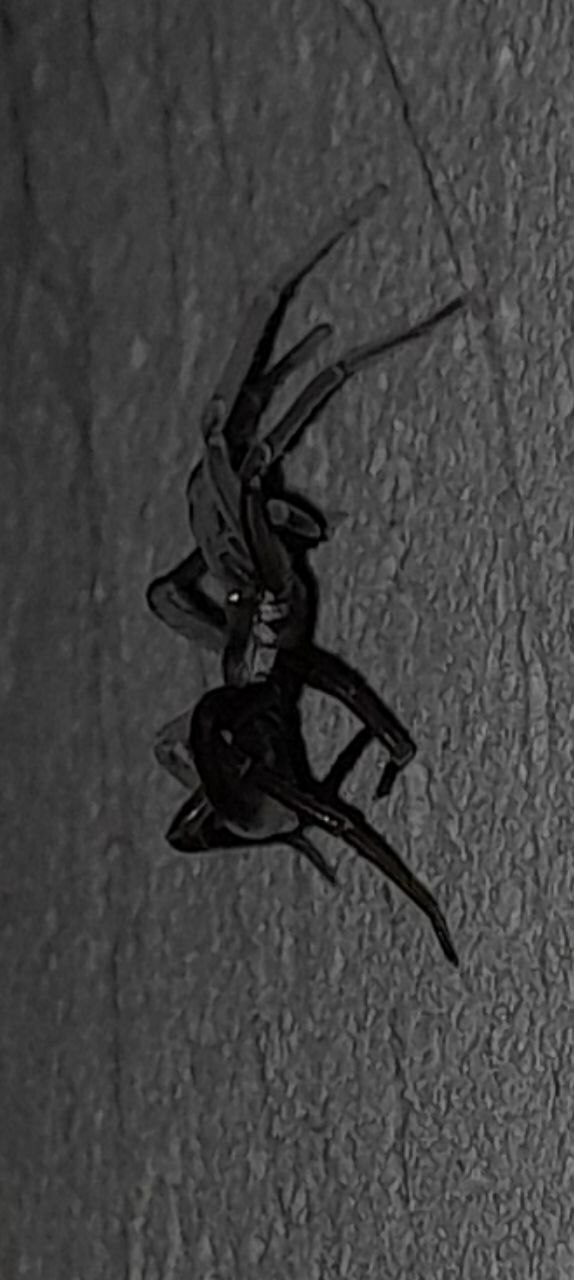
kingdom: Animalia
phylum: Arthropoda
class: Arachnida
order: Araneae
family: Filistatidae
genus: Kukulcania
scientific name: Kukulcania hibernalis
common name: Crevice weaver
